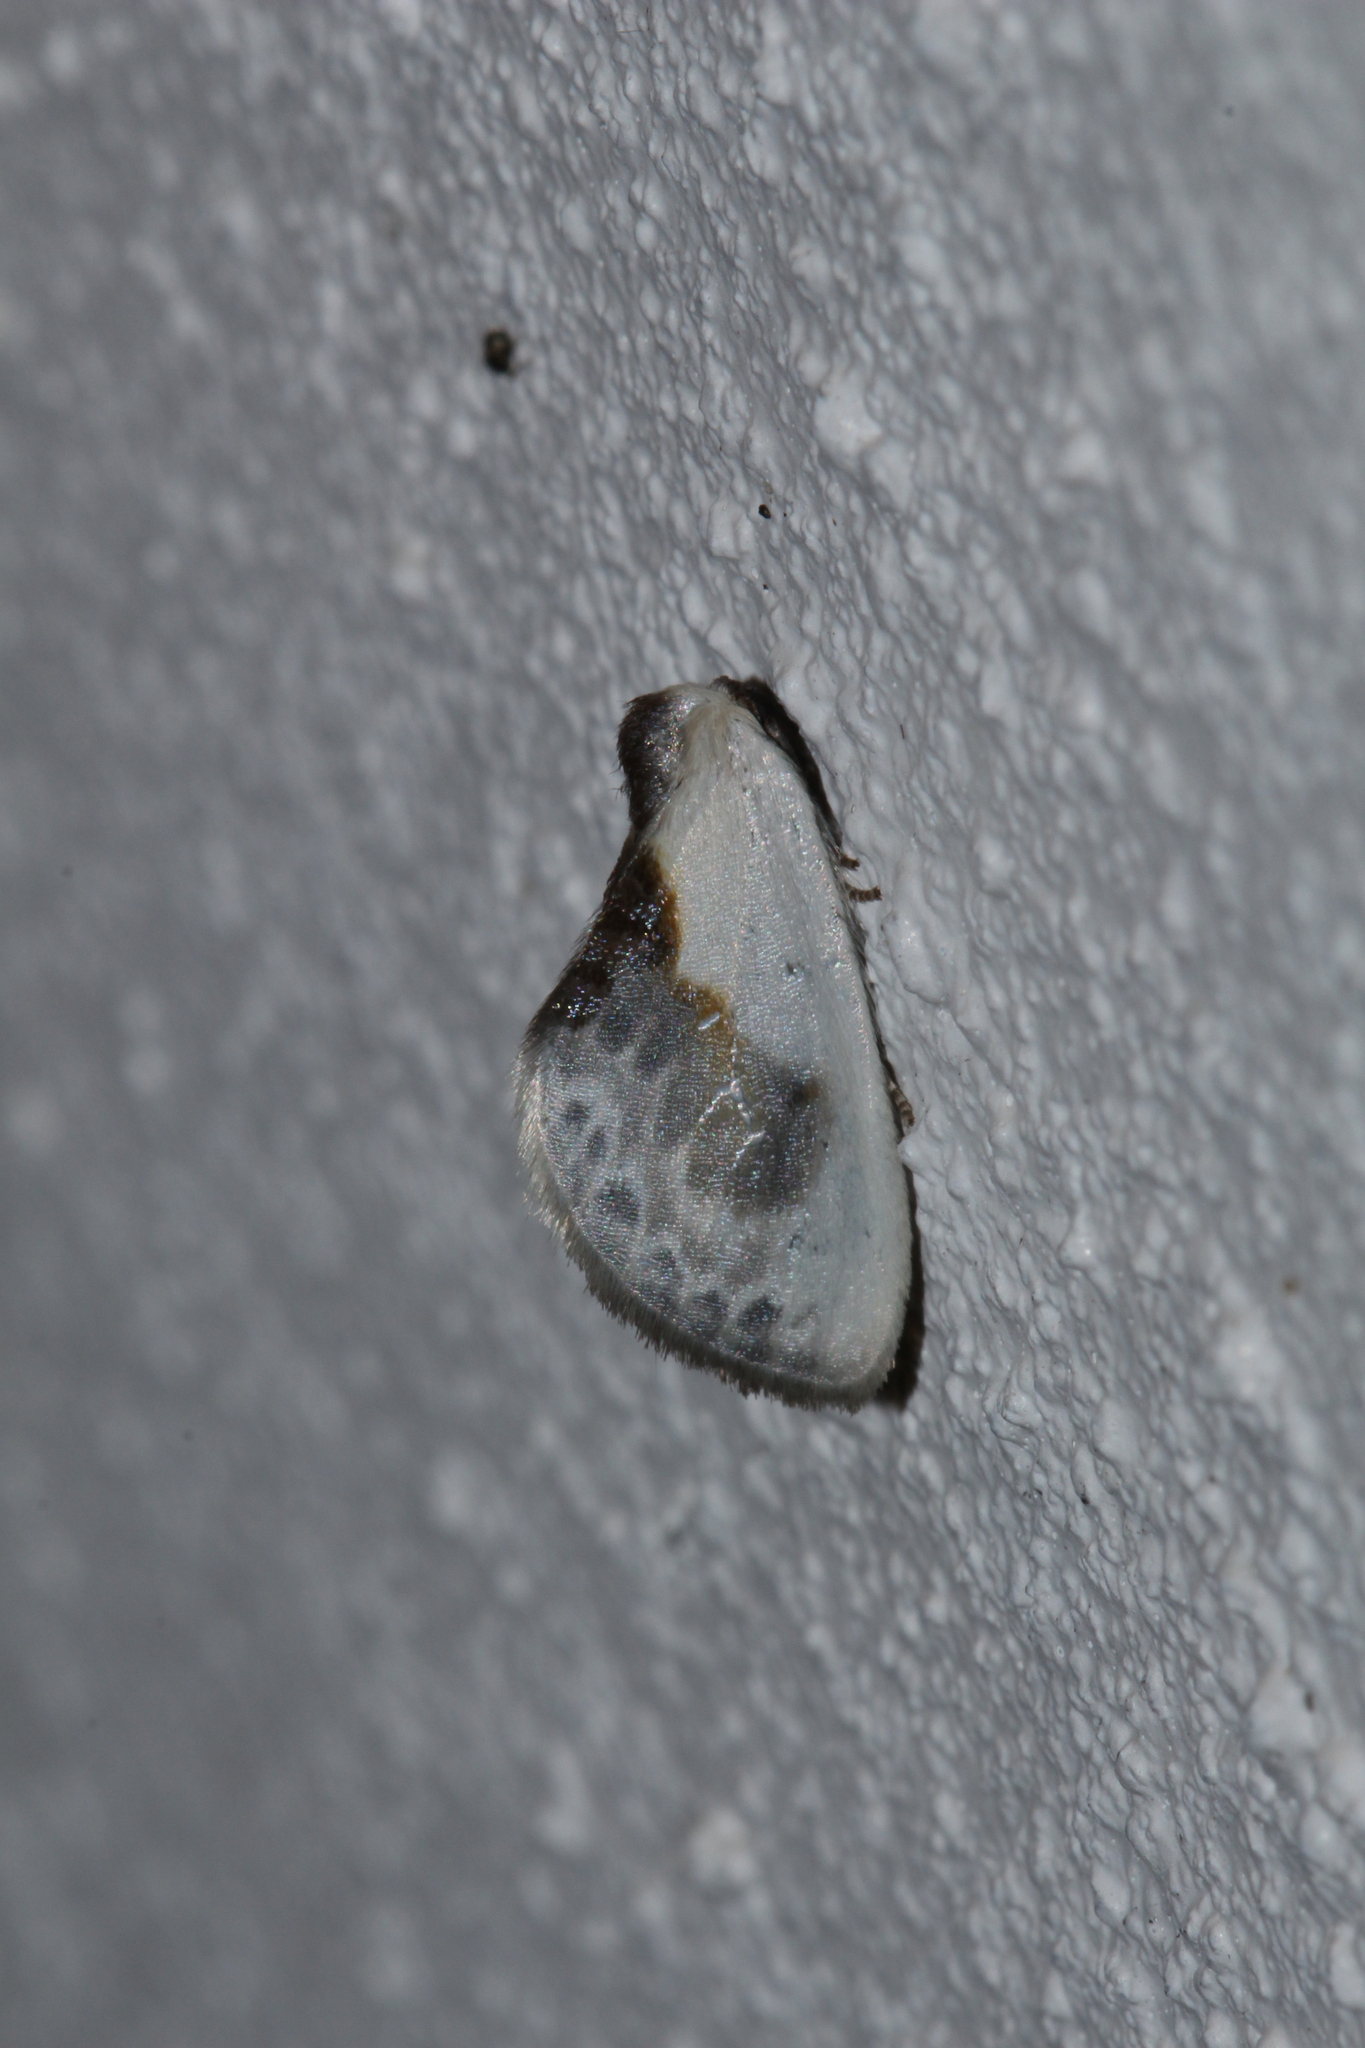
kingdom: Animalia
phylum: Arthropoda
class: Insecta
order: Lepidoptera
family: Drepanidae
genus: Cilix
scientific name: Cilix glaucata
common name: Chinese character
